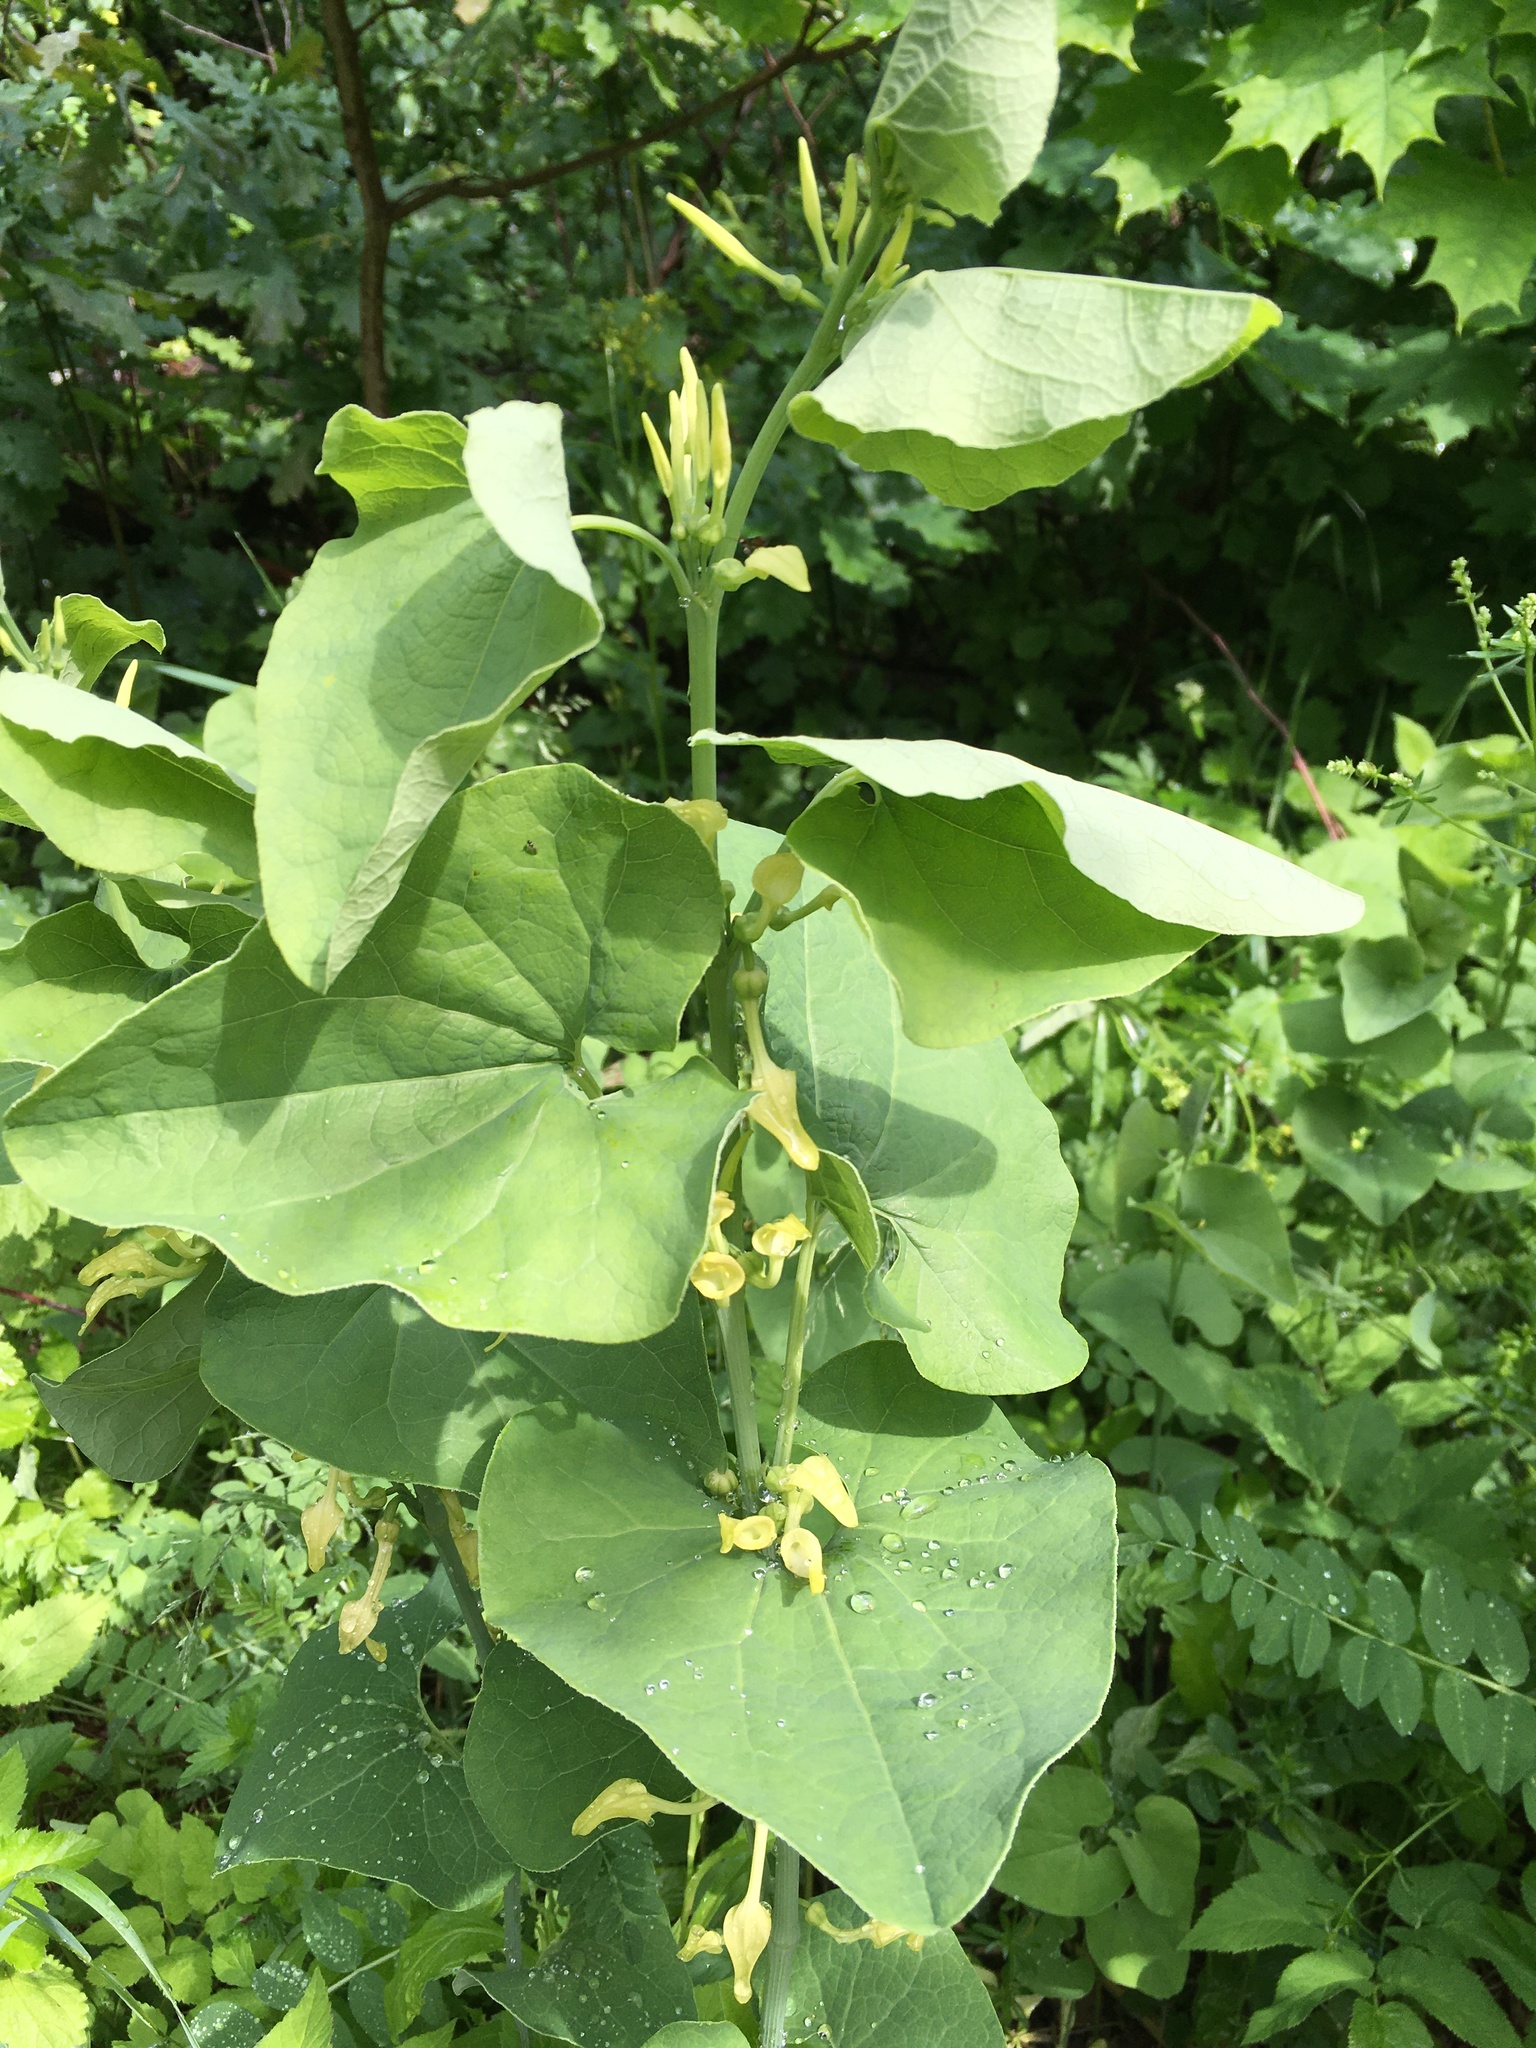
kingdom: Plantae
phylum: Tracheophyta
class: Magnoliopsida
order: Piperales
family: Aristolochiaceae
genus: Aristolochia
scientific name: Aristolochia clematitis
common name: Birthwort
